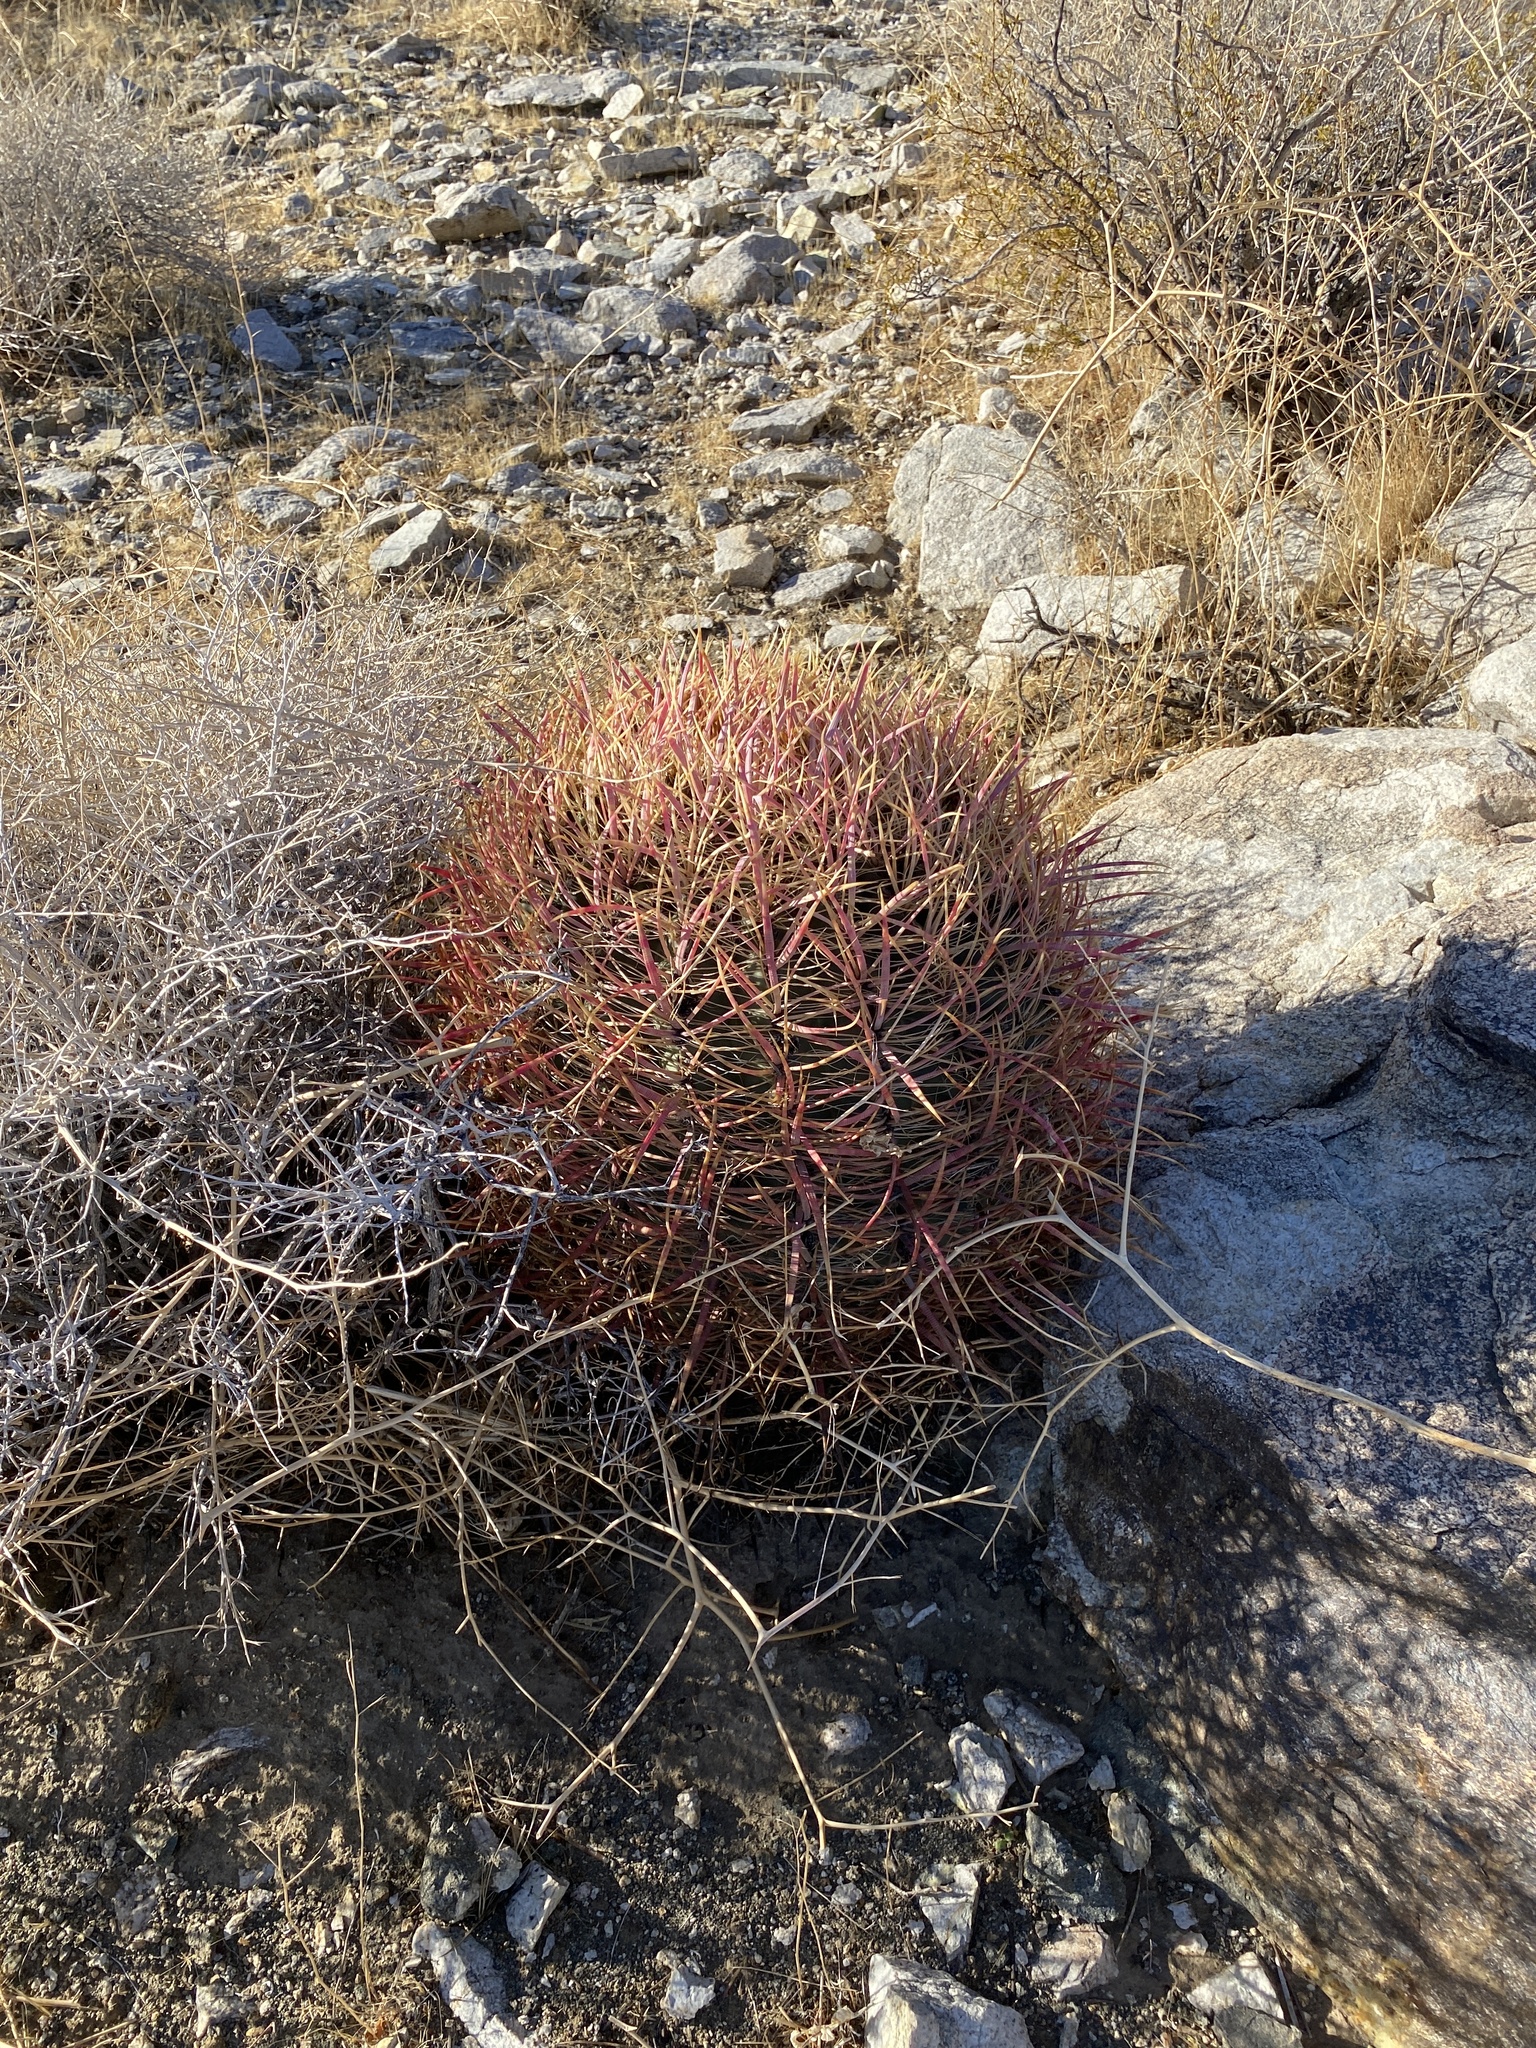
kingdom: Plantae
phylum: Tracheophyta
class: Magnoliopsida
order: Caryophyllales
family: Cactaceae
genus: Ferocactus
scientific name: Ferocactus cylindraceus
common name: California barrel cactus
